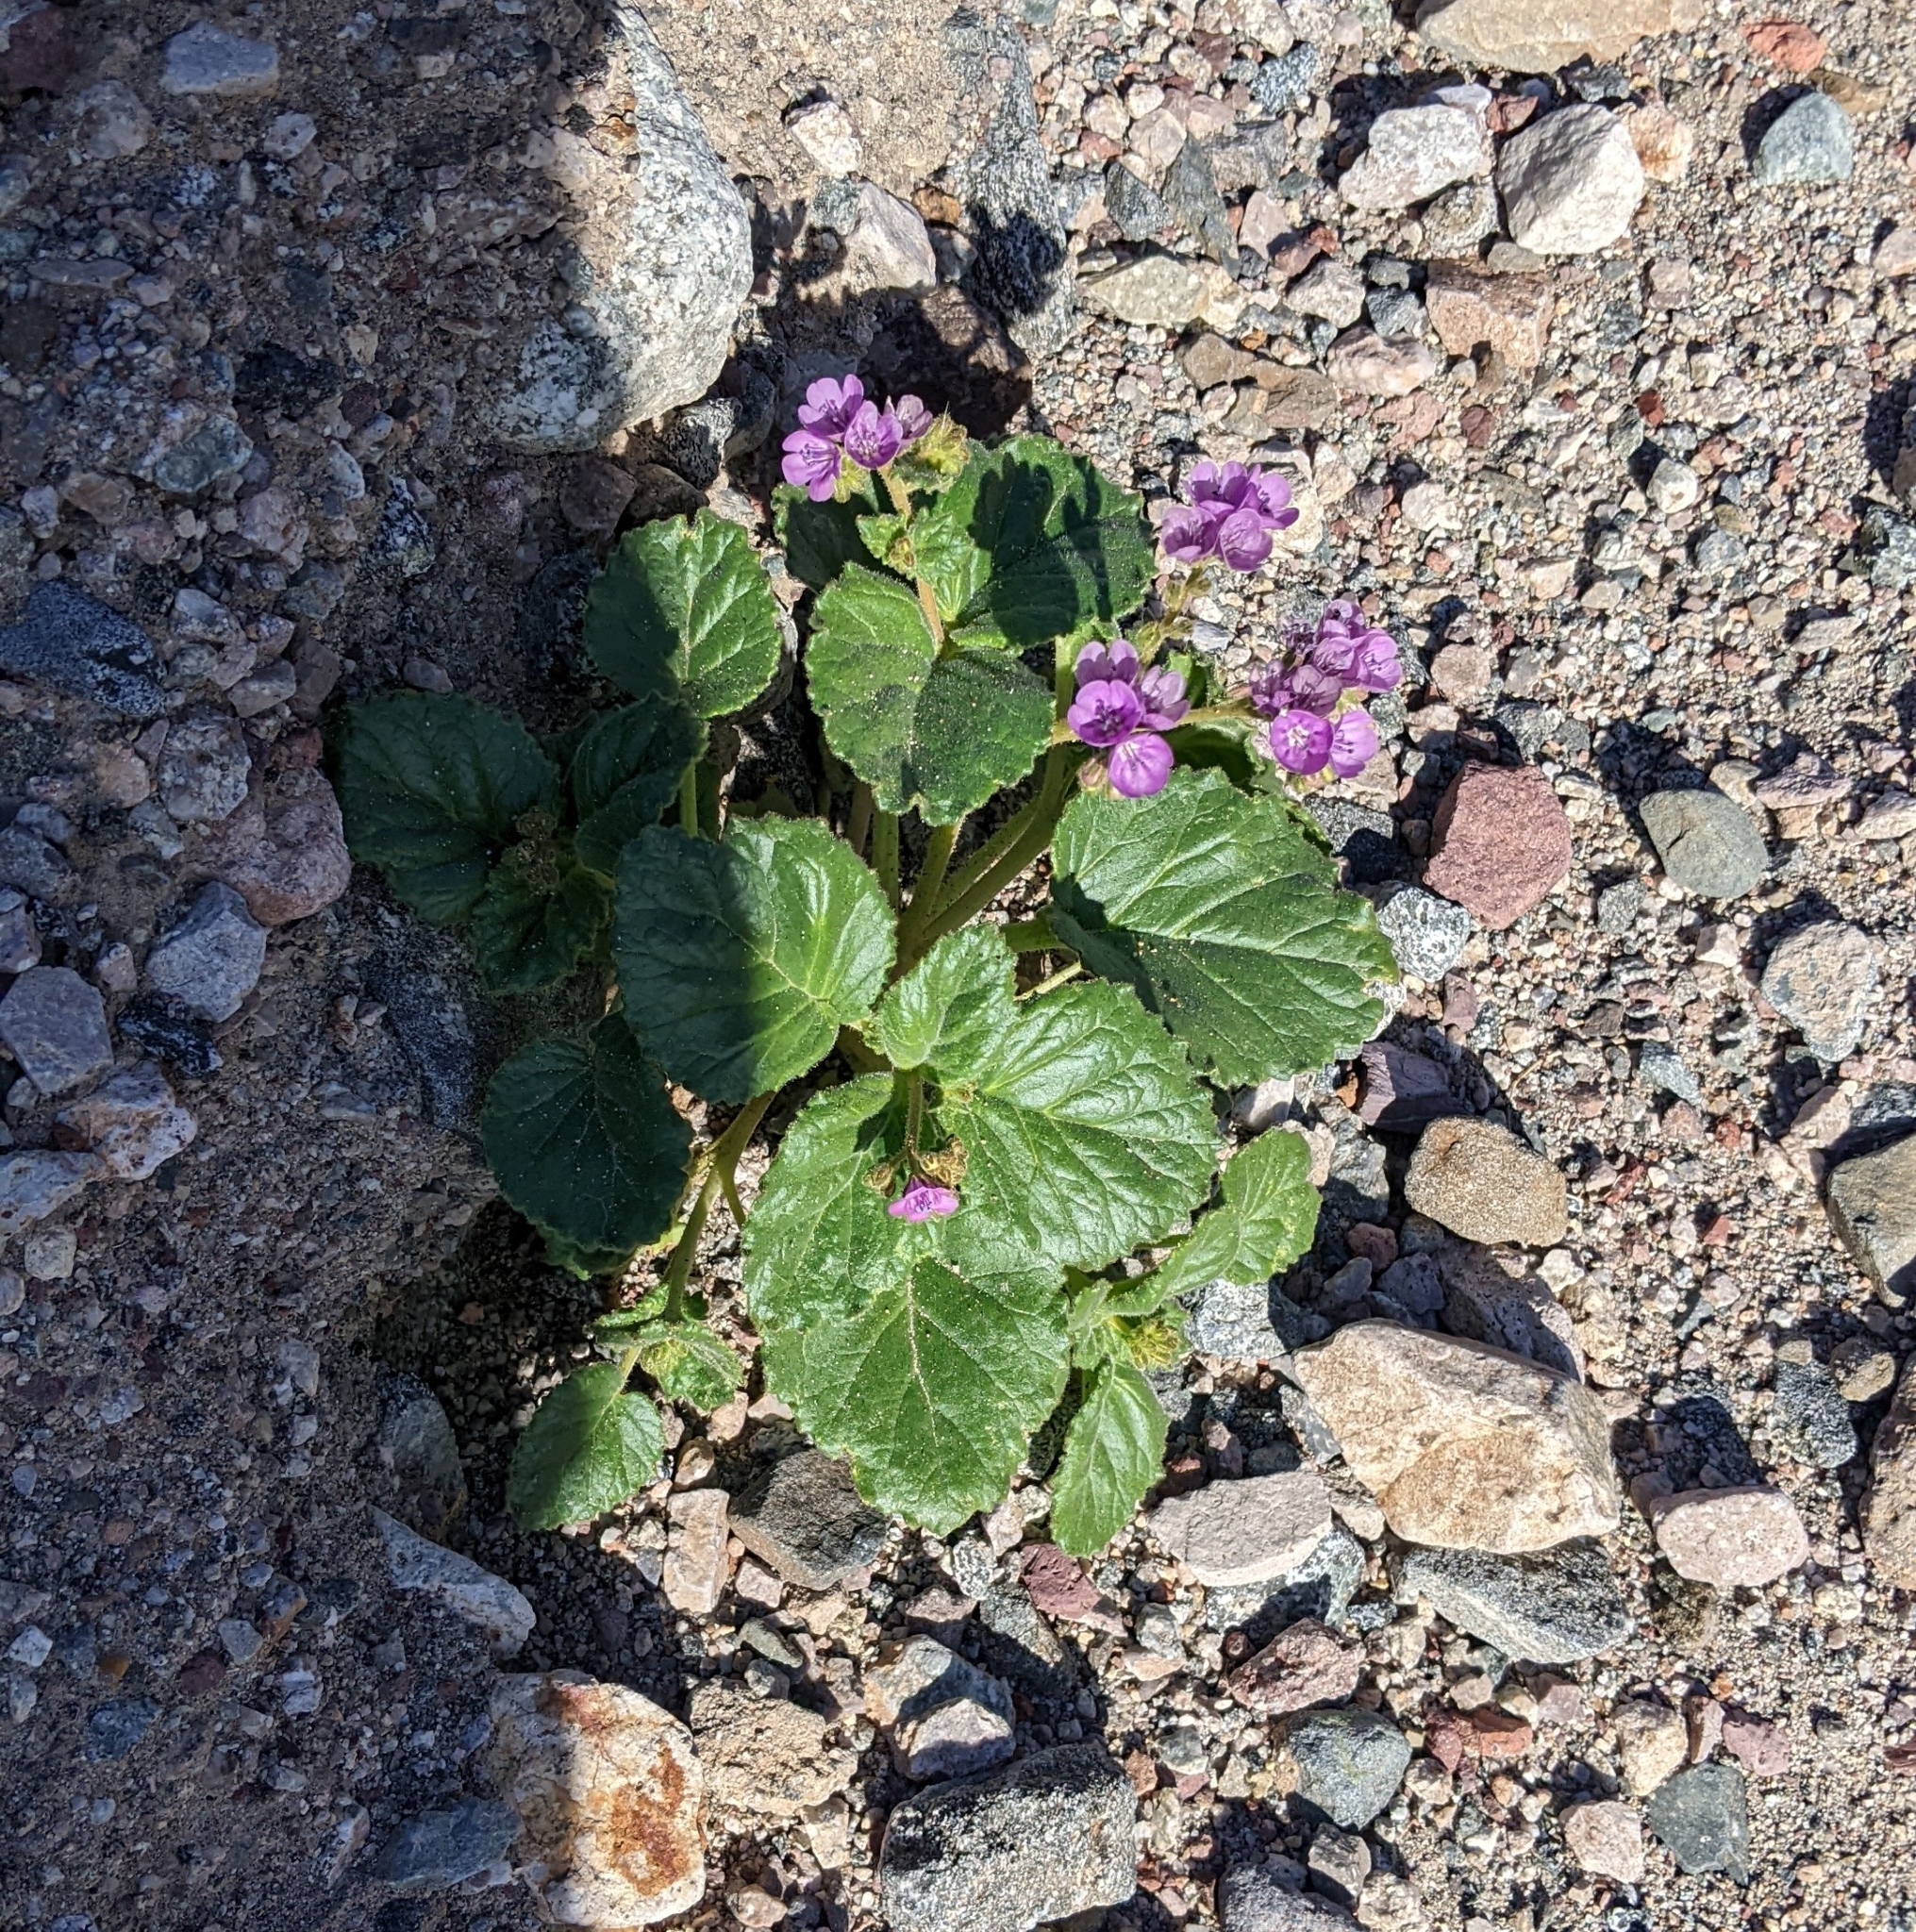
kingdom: Plantae
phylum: Tracheophyta
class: Magnoliopsida
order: Boraginales
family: Hydrophyllaceae
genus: Phacelia
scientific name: Phacelia calthifolia
